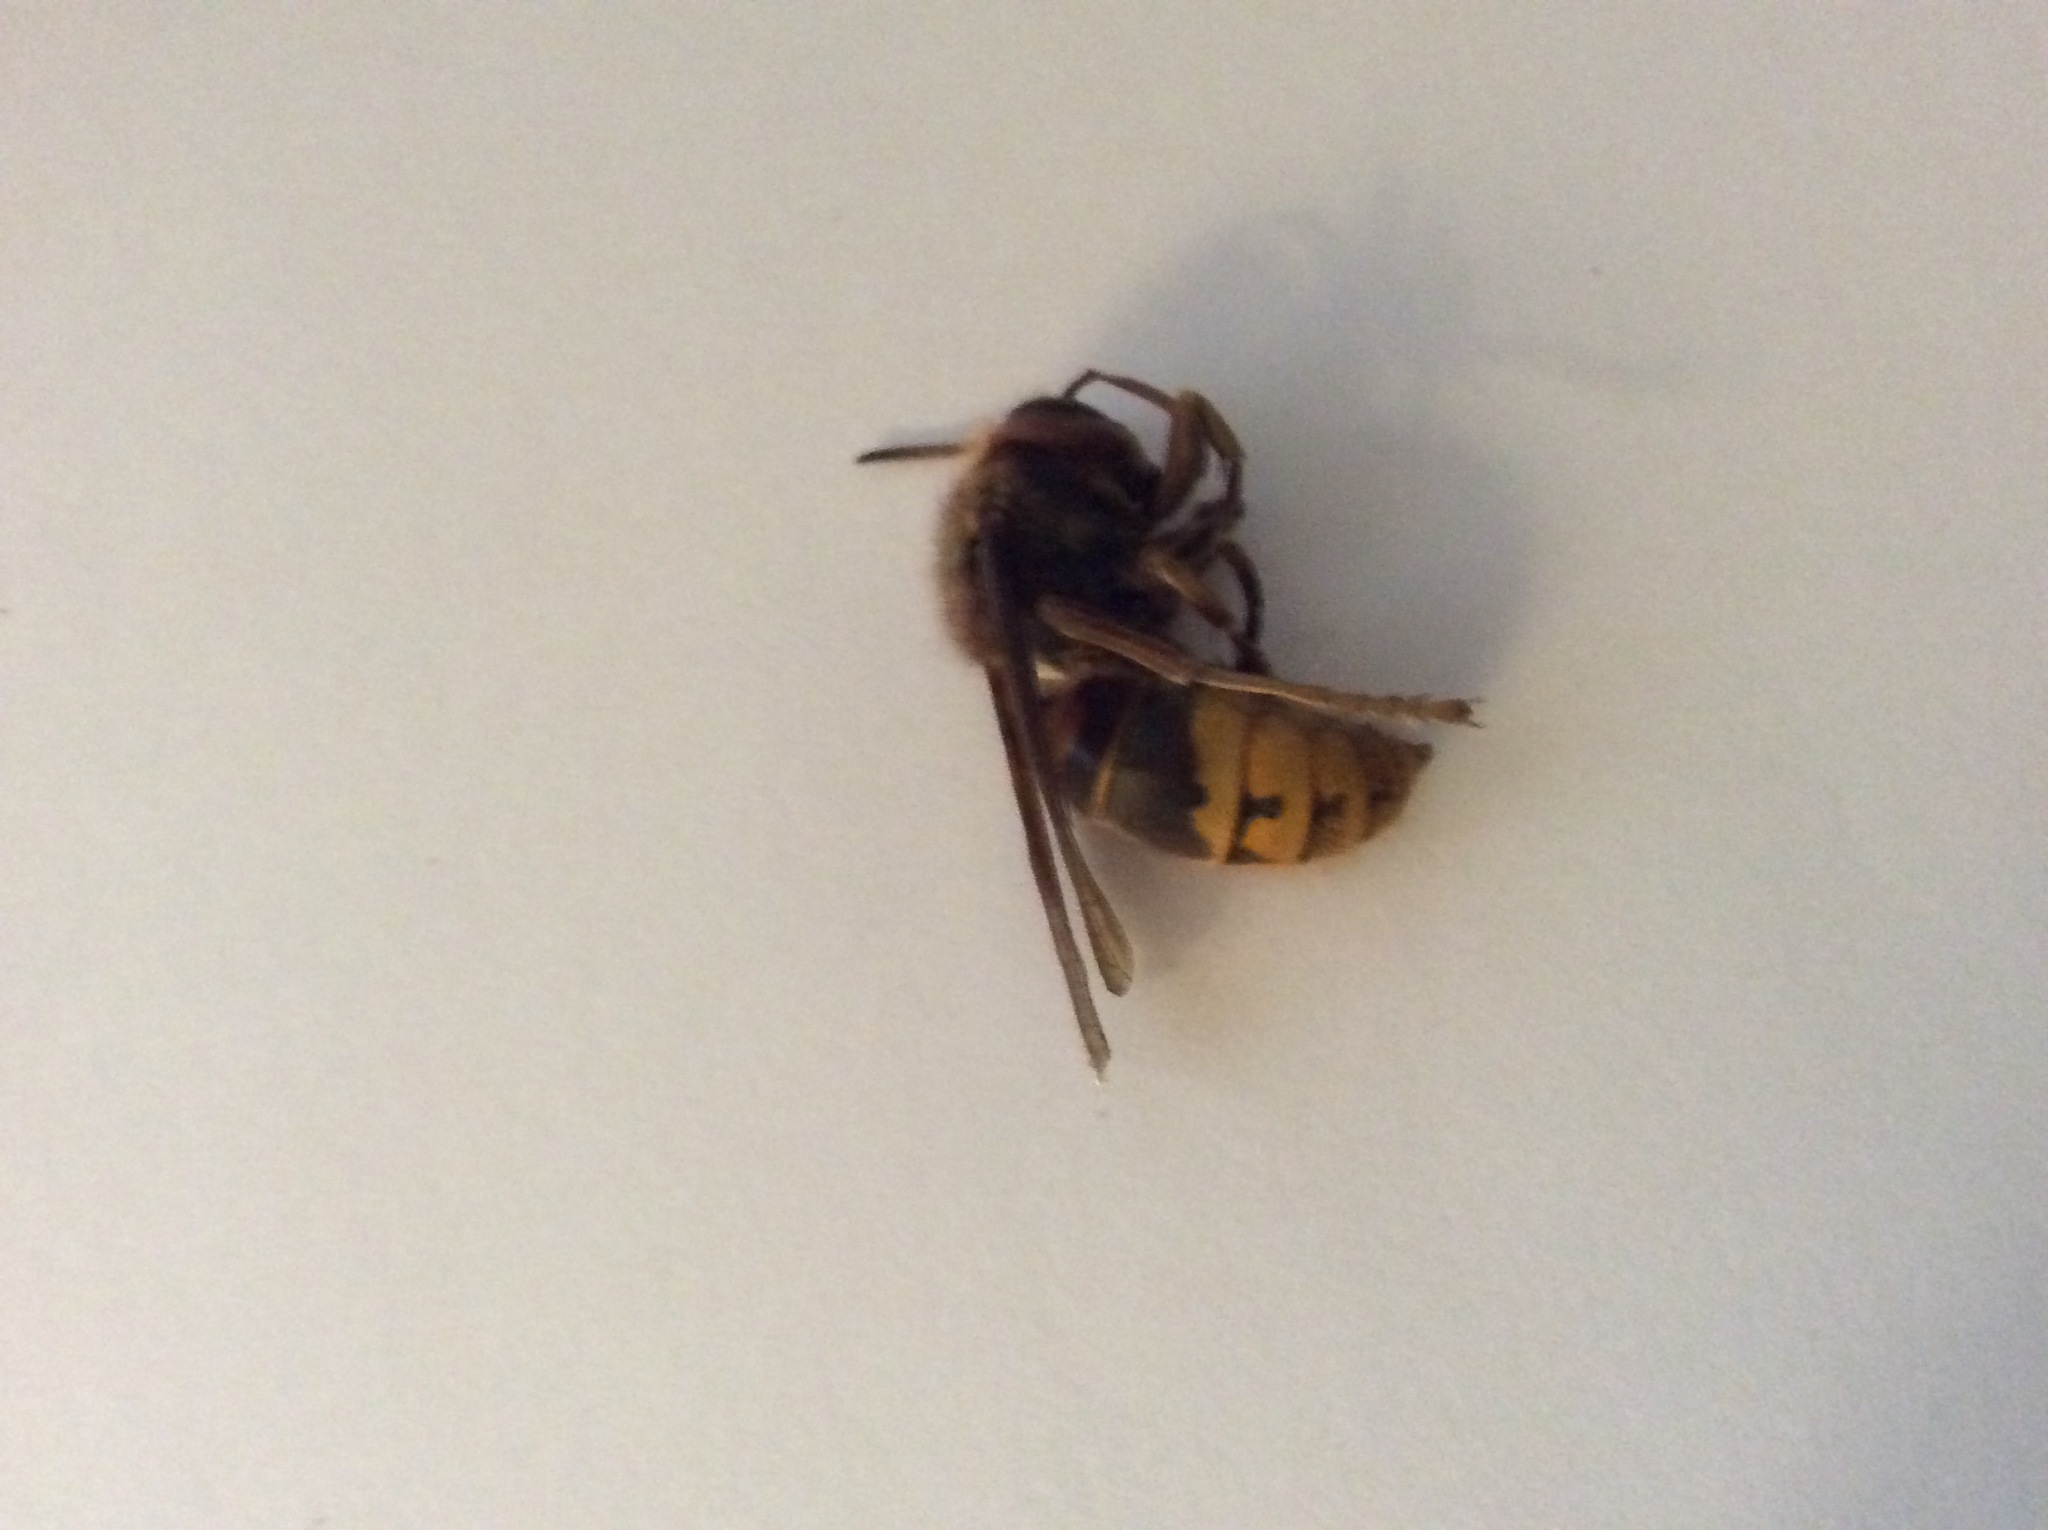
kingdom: Animalia
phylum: Arthropoda
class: Insecta
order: Hymenoptera
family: Vespidae
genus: Vespa
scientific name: Vespa crabro
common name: Hornet
